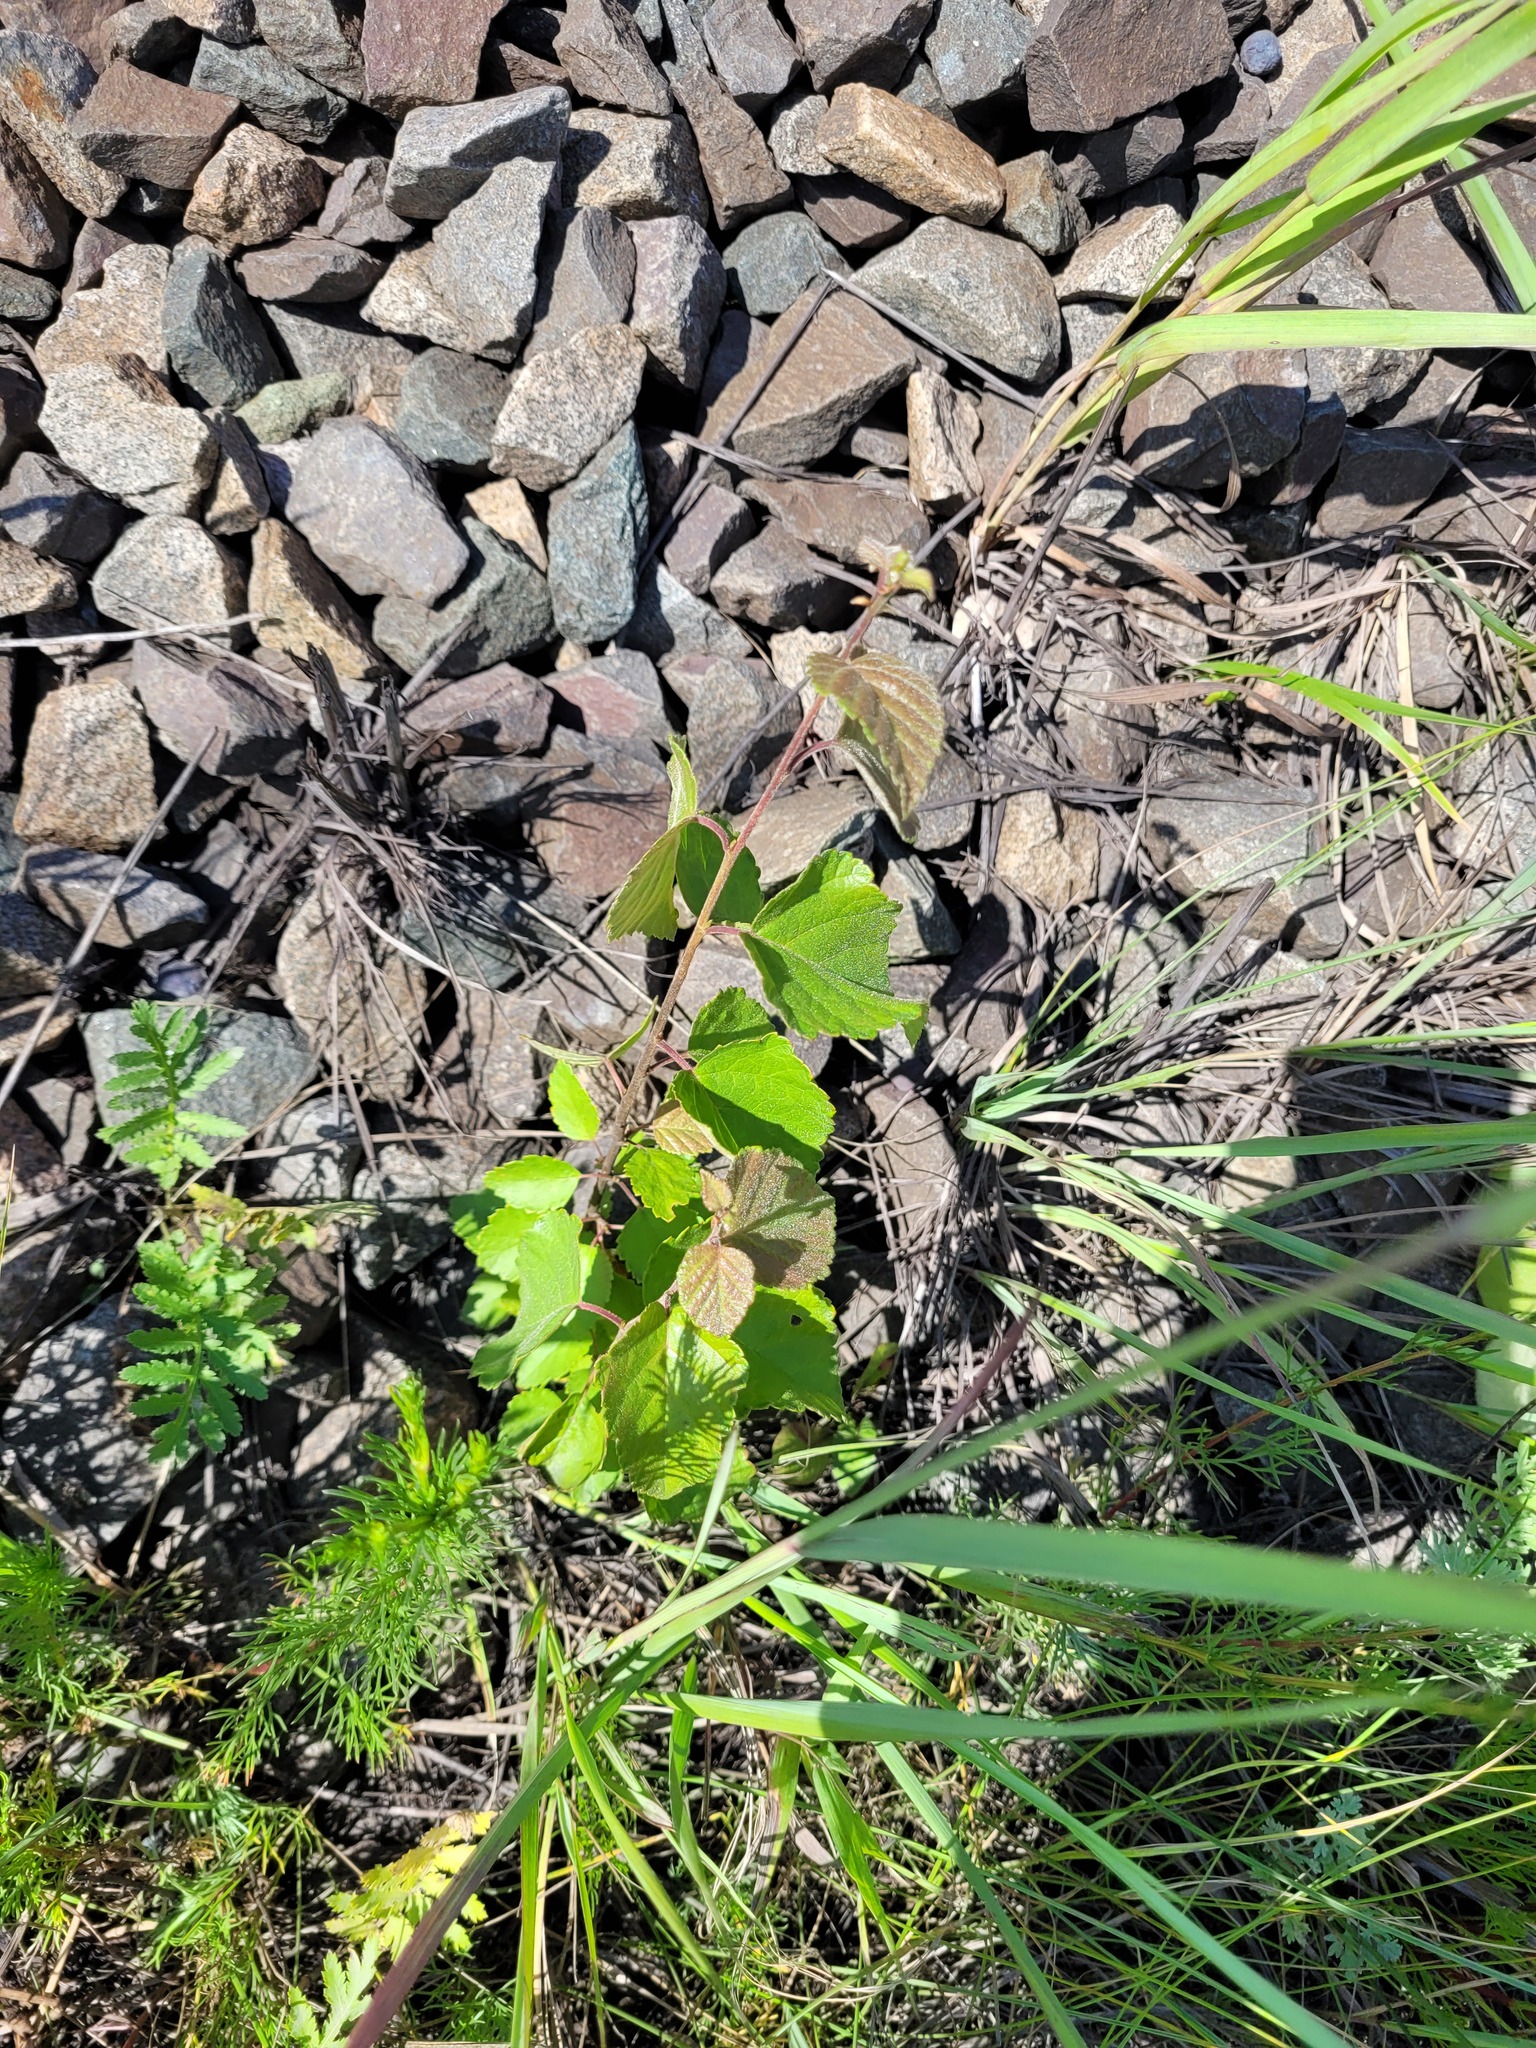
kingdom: Plantae
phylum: Tracheophyta
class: Magnoliopsida
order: Fagales
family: Betulaceae
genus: Betula
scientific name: Betula pubescens
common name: Downy birch
